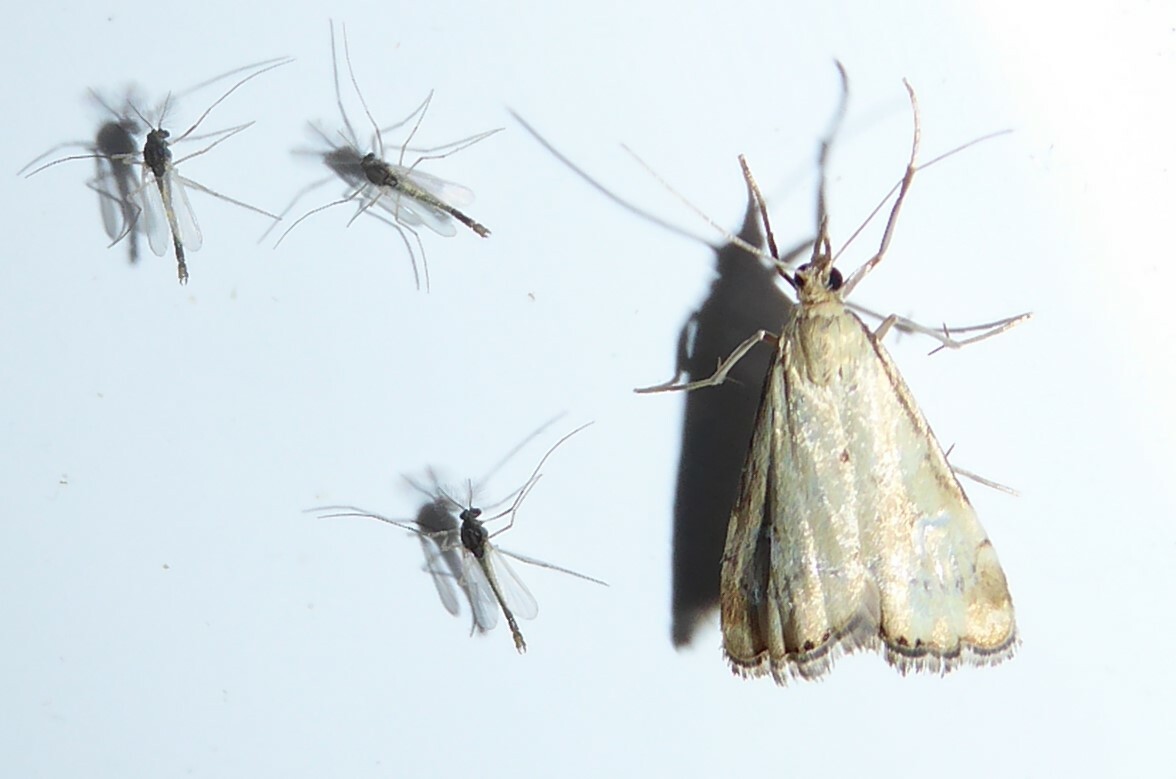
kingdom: Animalia
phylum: Arthropoda
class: Insecta
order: Lepidoptera
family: Crambidae
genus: Glaucocharis
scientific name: Glaucocharis lepidella
